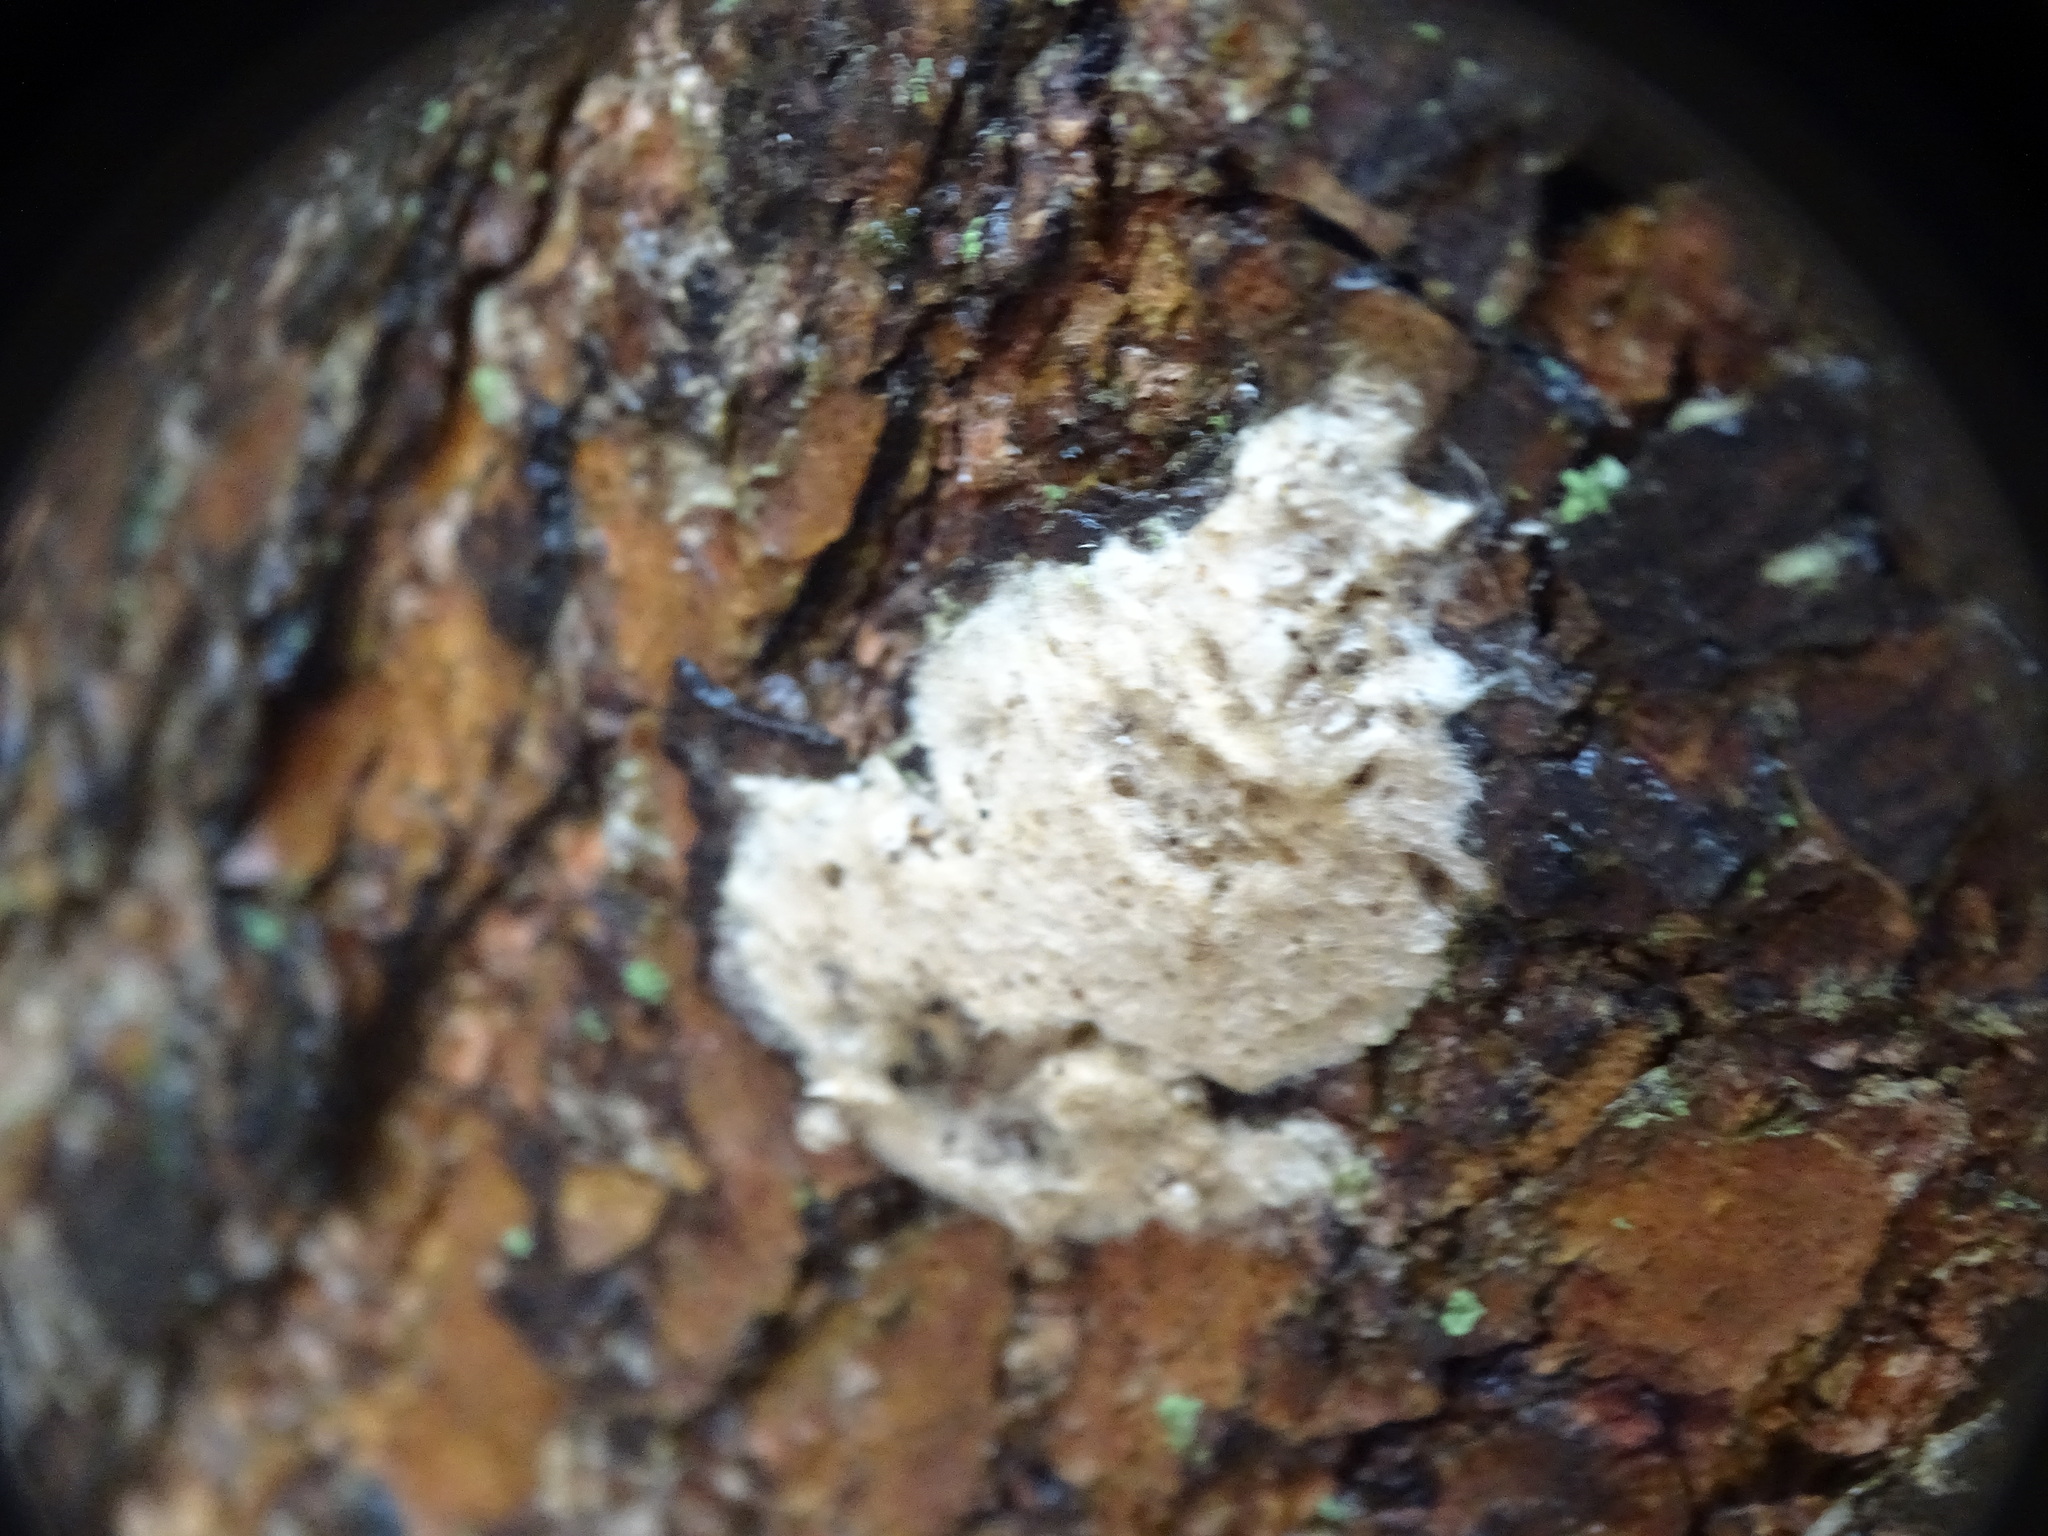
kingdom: Animalia
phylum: Arthropoda
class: Insecta
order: Lepidoptera
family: Erebidae
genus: Lymantria
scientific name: Lymantria dispar
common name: Gypsy moth
